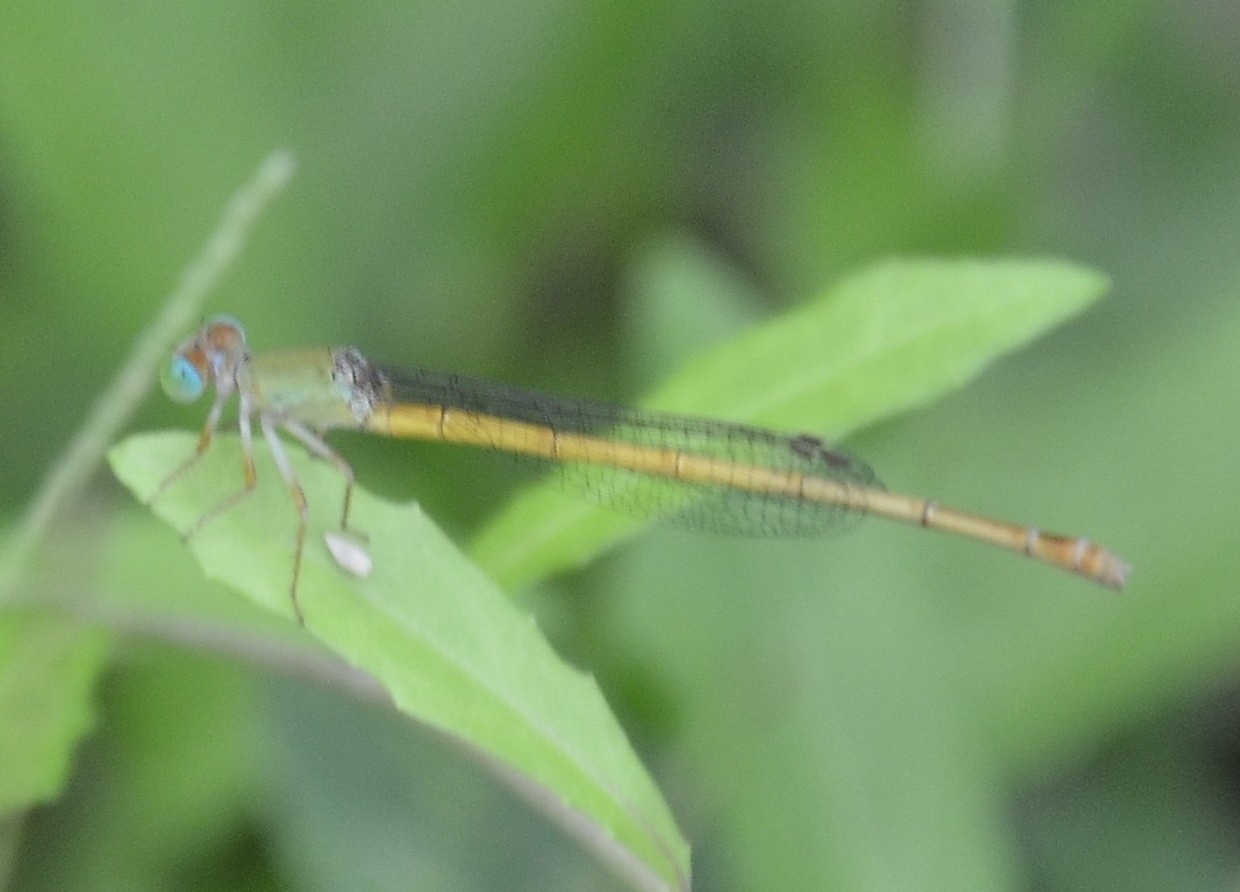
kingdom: Animalia
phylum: Arthropoda
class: Insecta
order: Odonata
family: Coenagrionidae
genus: Ceriagrion
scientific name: Ceriagrion coromandelianum
